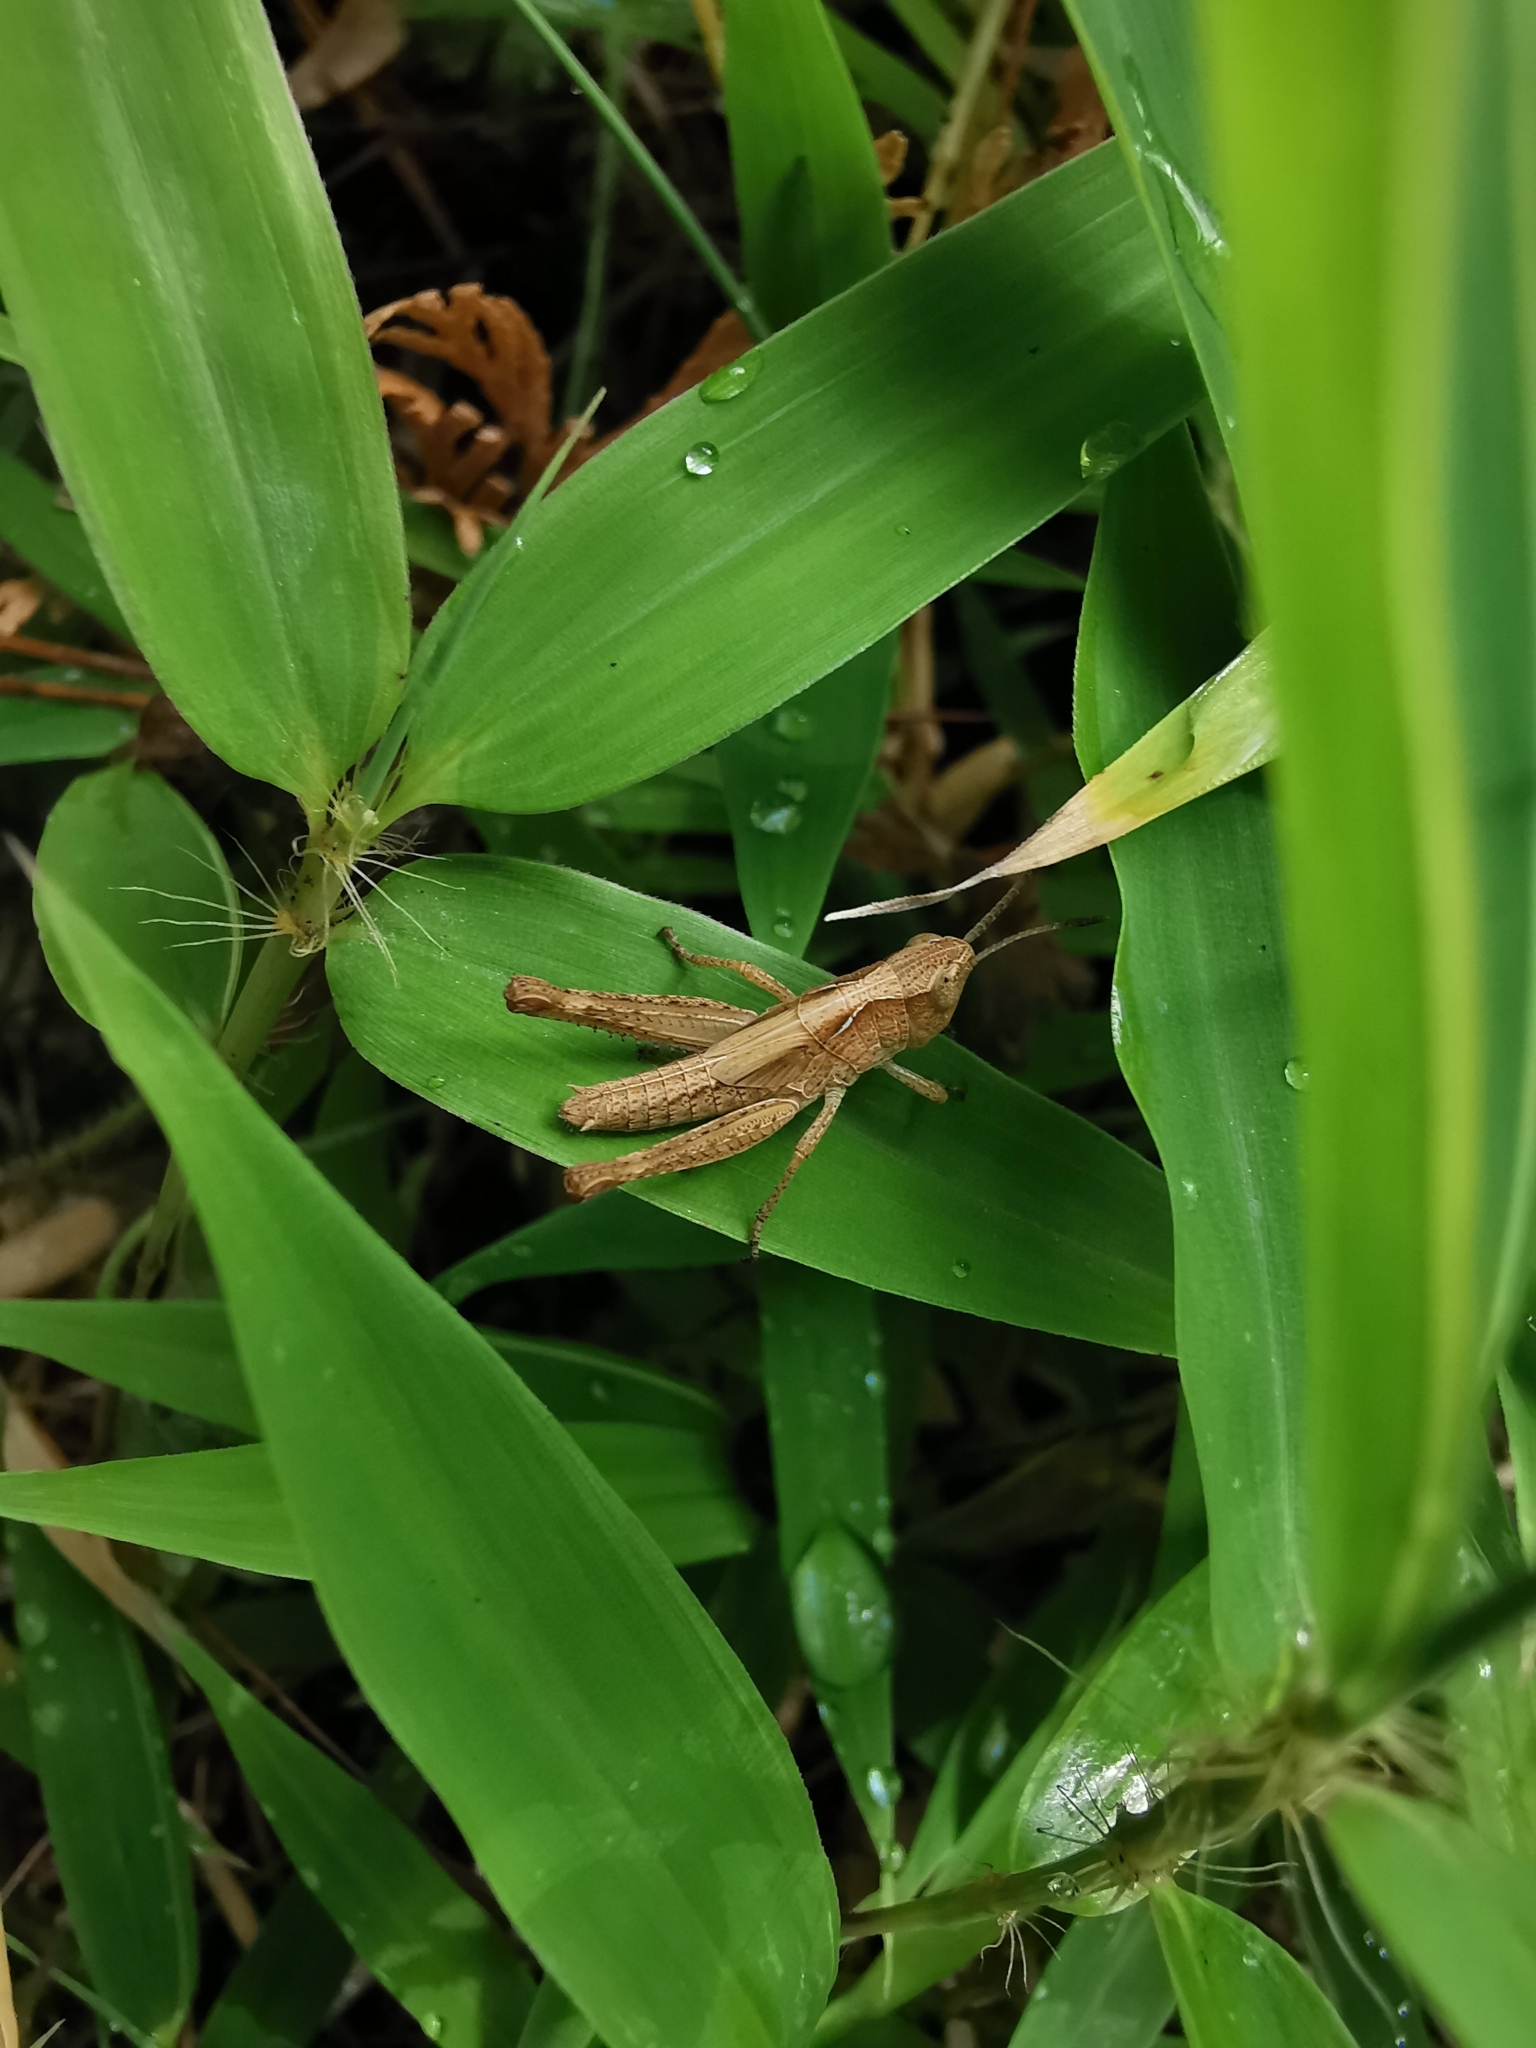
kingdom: Animalia
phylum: Arthropoda
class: Insecta
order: Orthoptera
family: Acrididae
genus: Gomphocerippus
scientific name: Gomphocerippus rufus
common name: Rufous grasshopper
